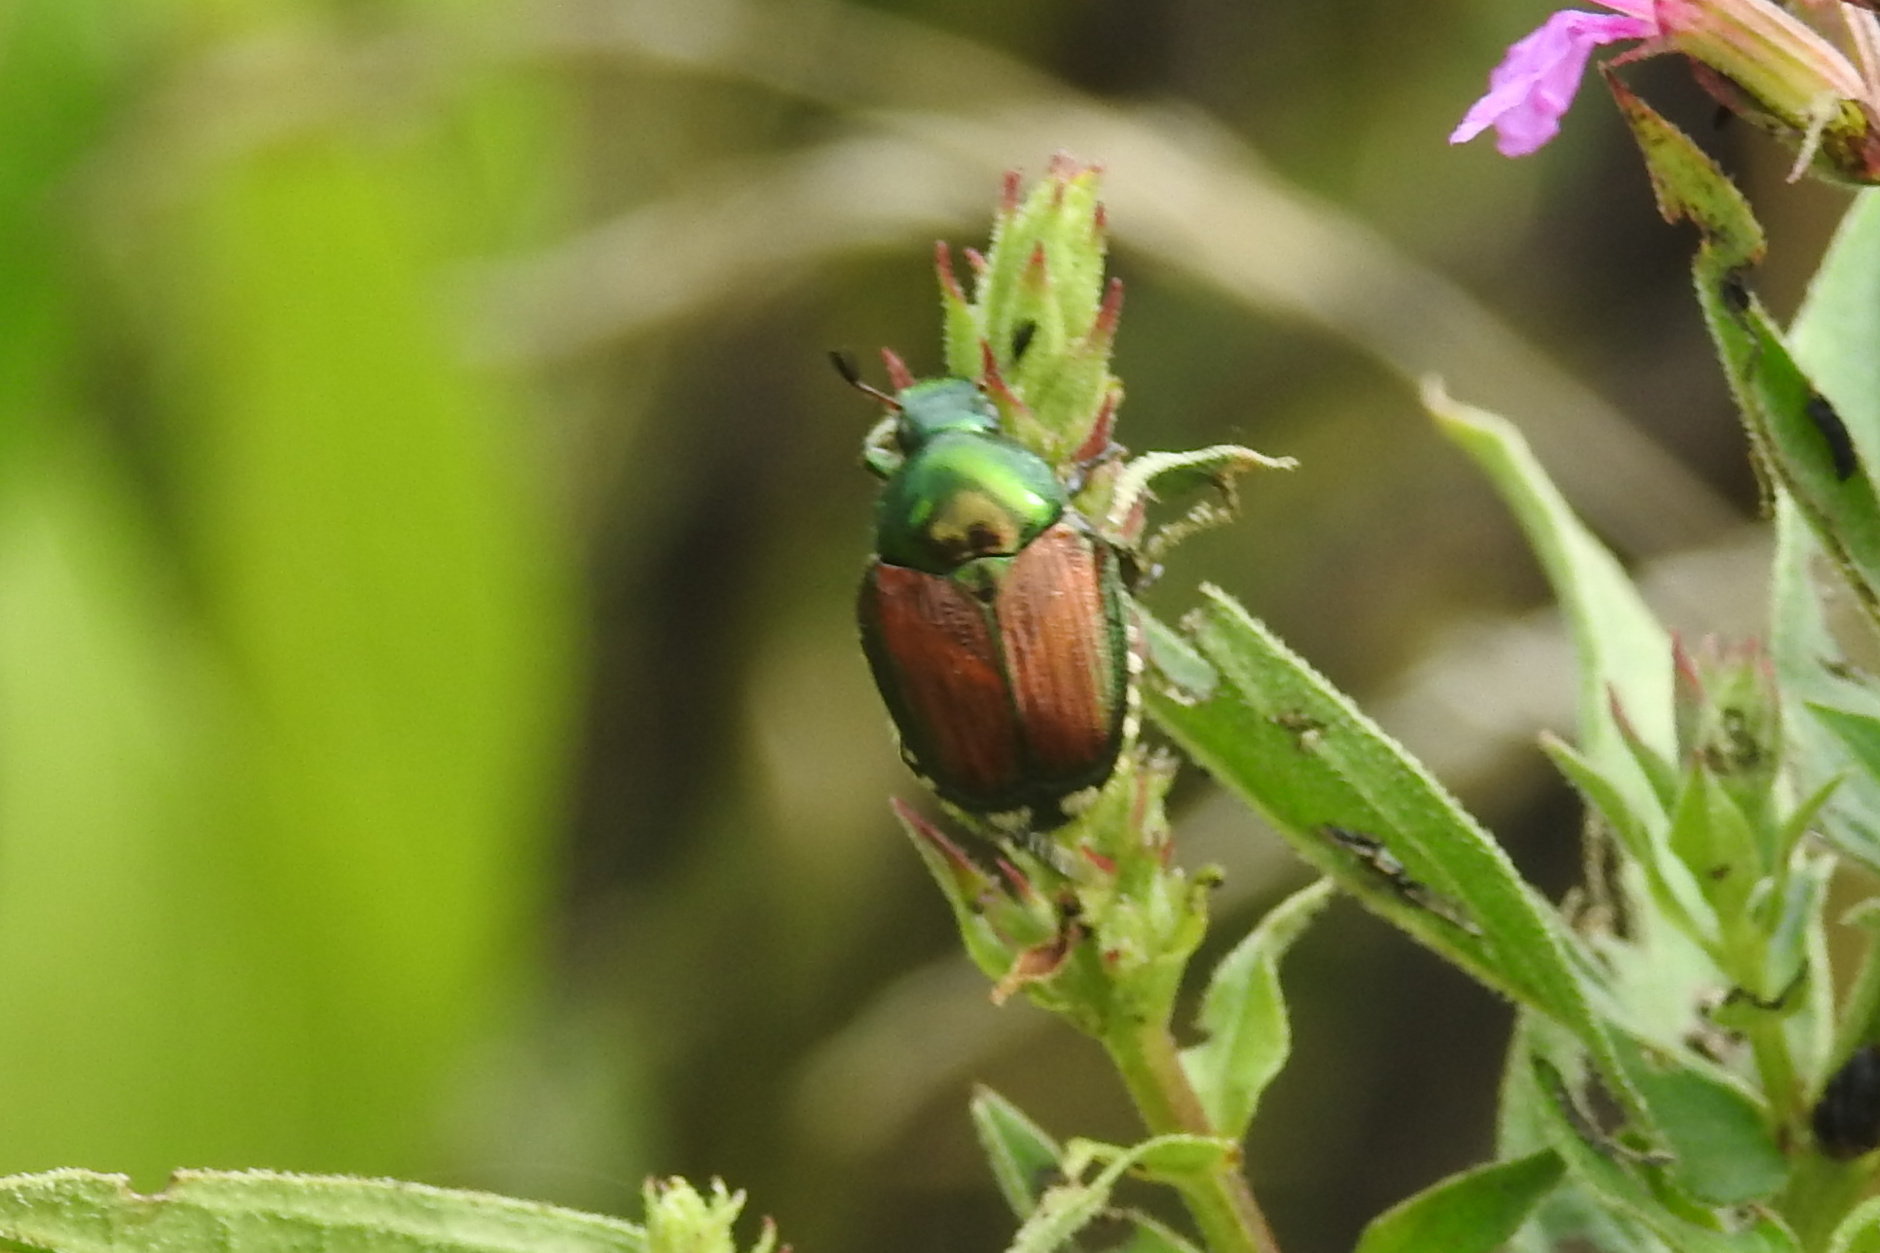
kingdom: Animalia
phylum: Arthropoda
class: Insecta
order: Coleoptera
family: Scarabaeidae
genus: Popillia
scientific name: Popillia japonica
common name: Japanese beetle
